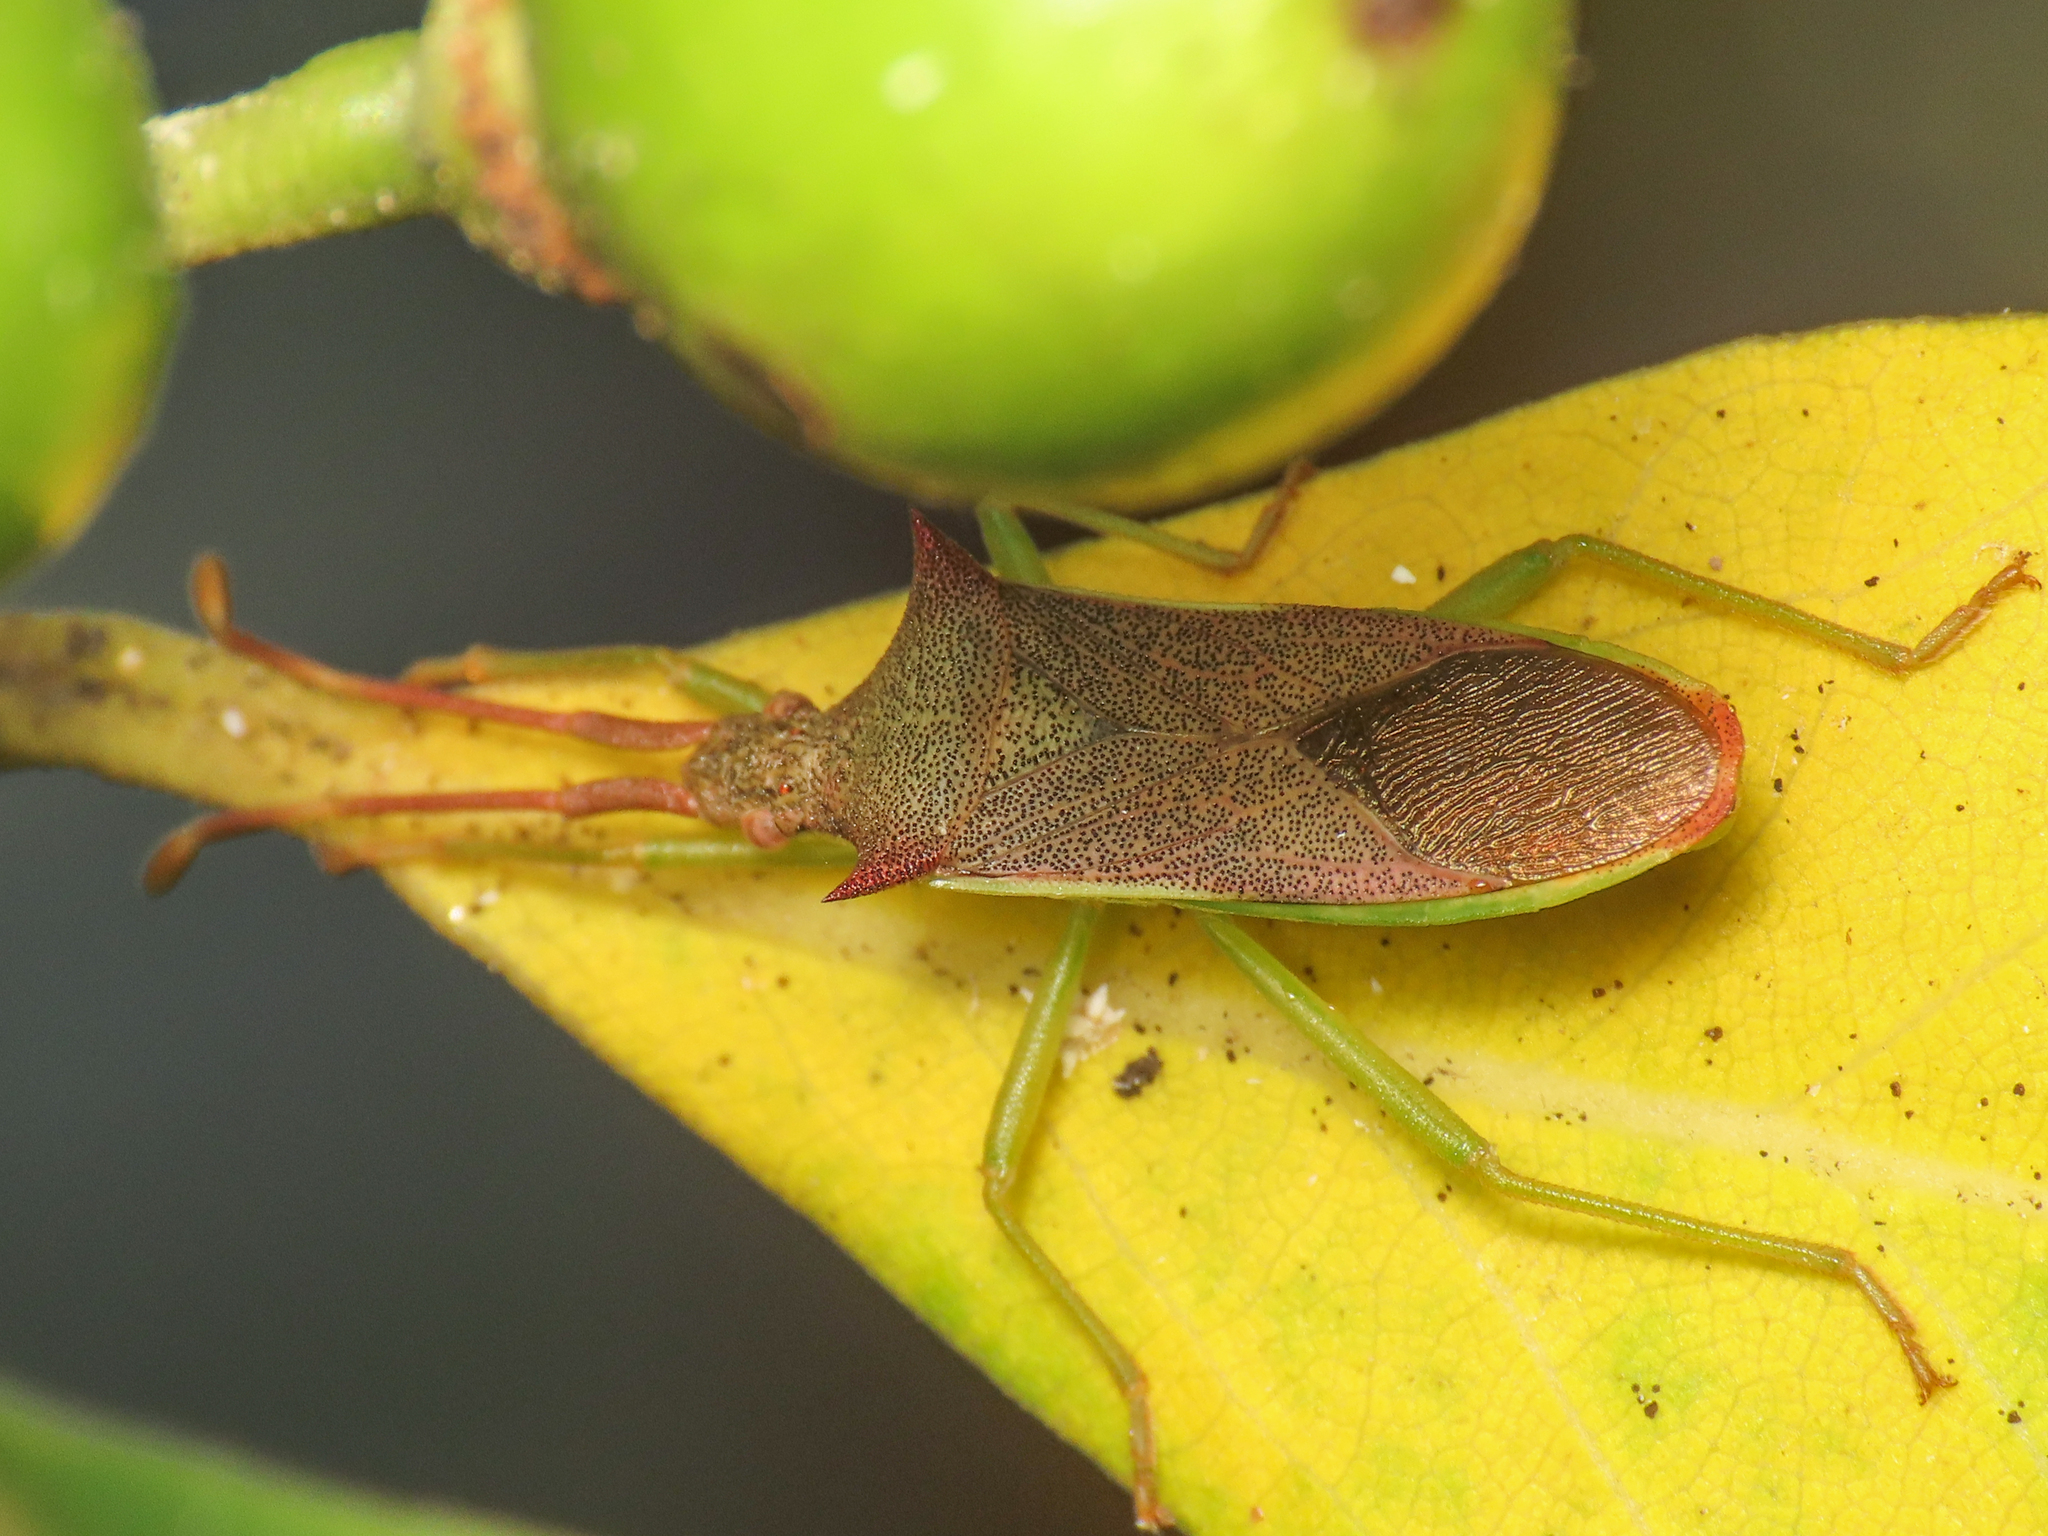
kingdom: Animalia
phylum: Arthropoda
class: Insecta
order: Hemiptera
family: Coreidae
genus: Gonocerus
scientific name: Gonocerus insidiator
